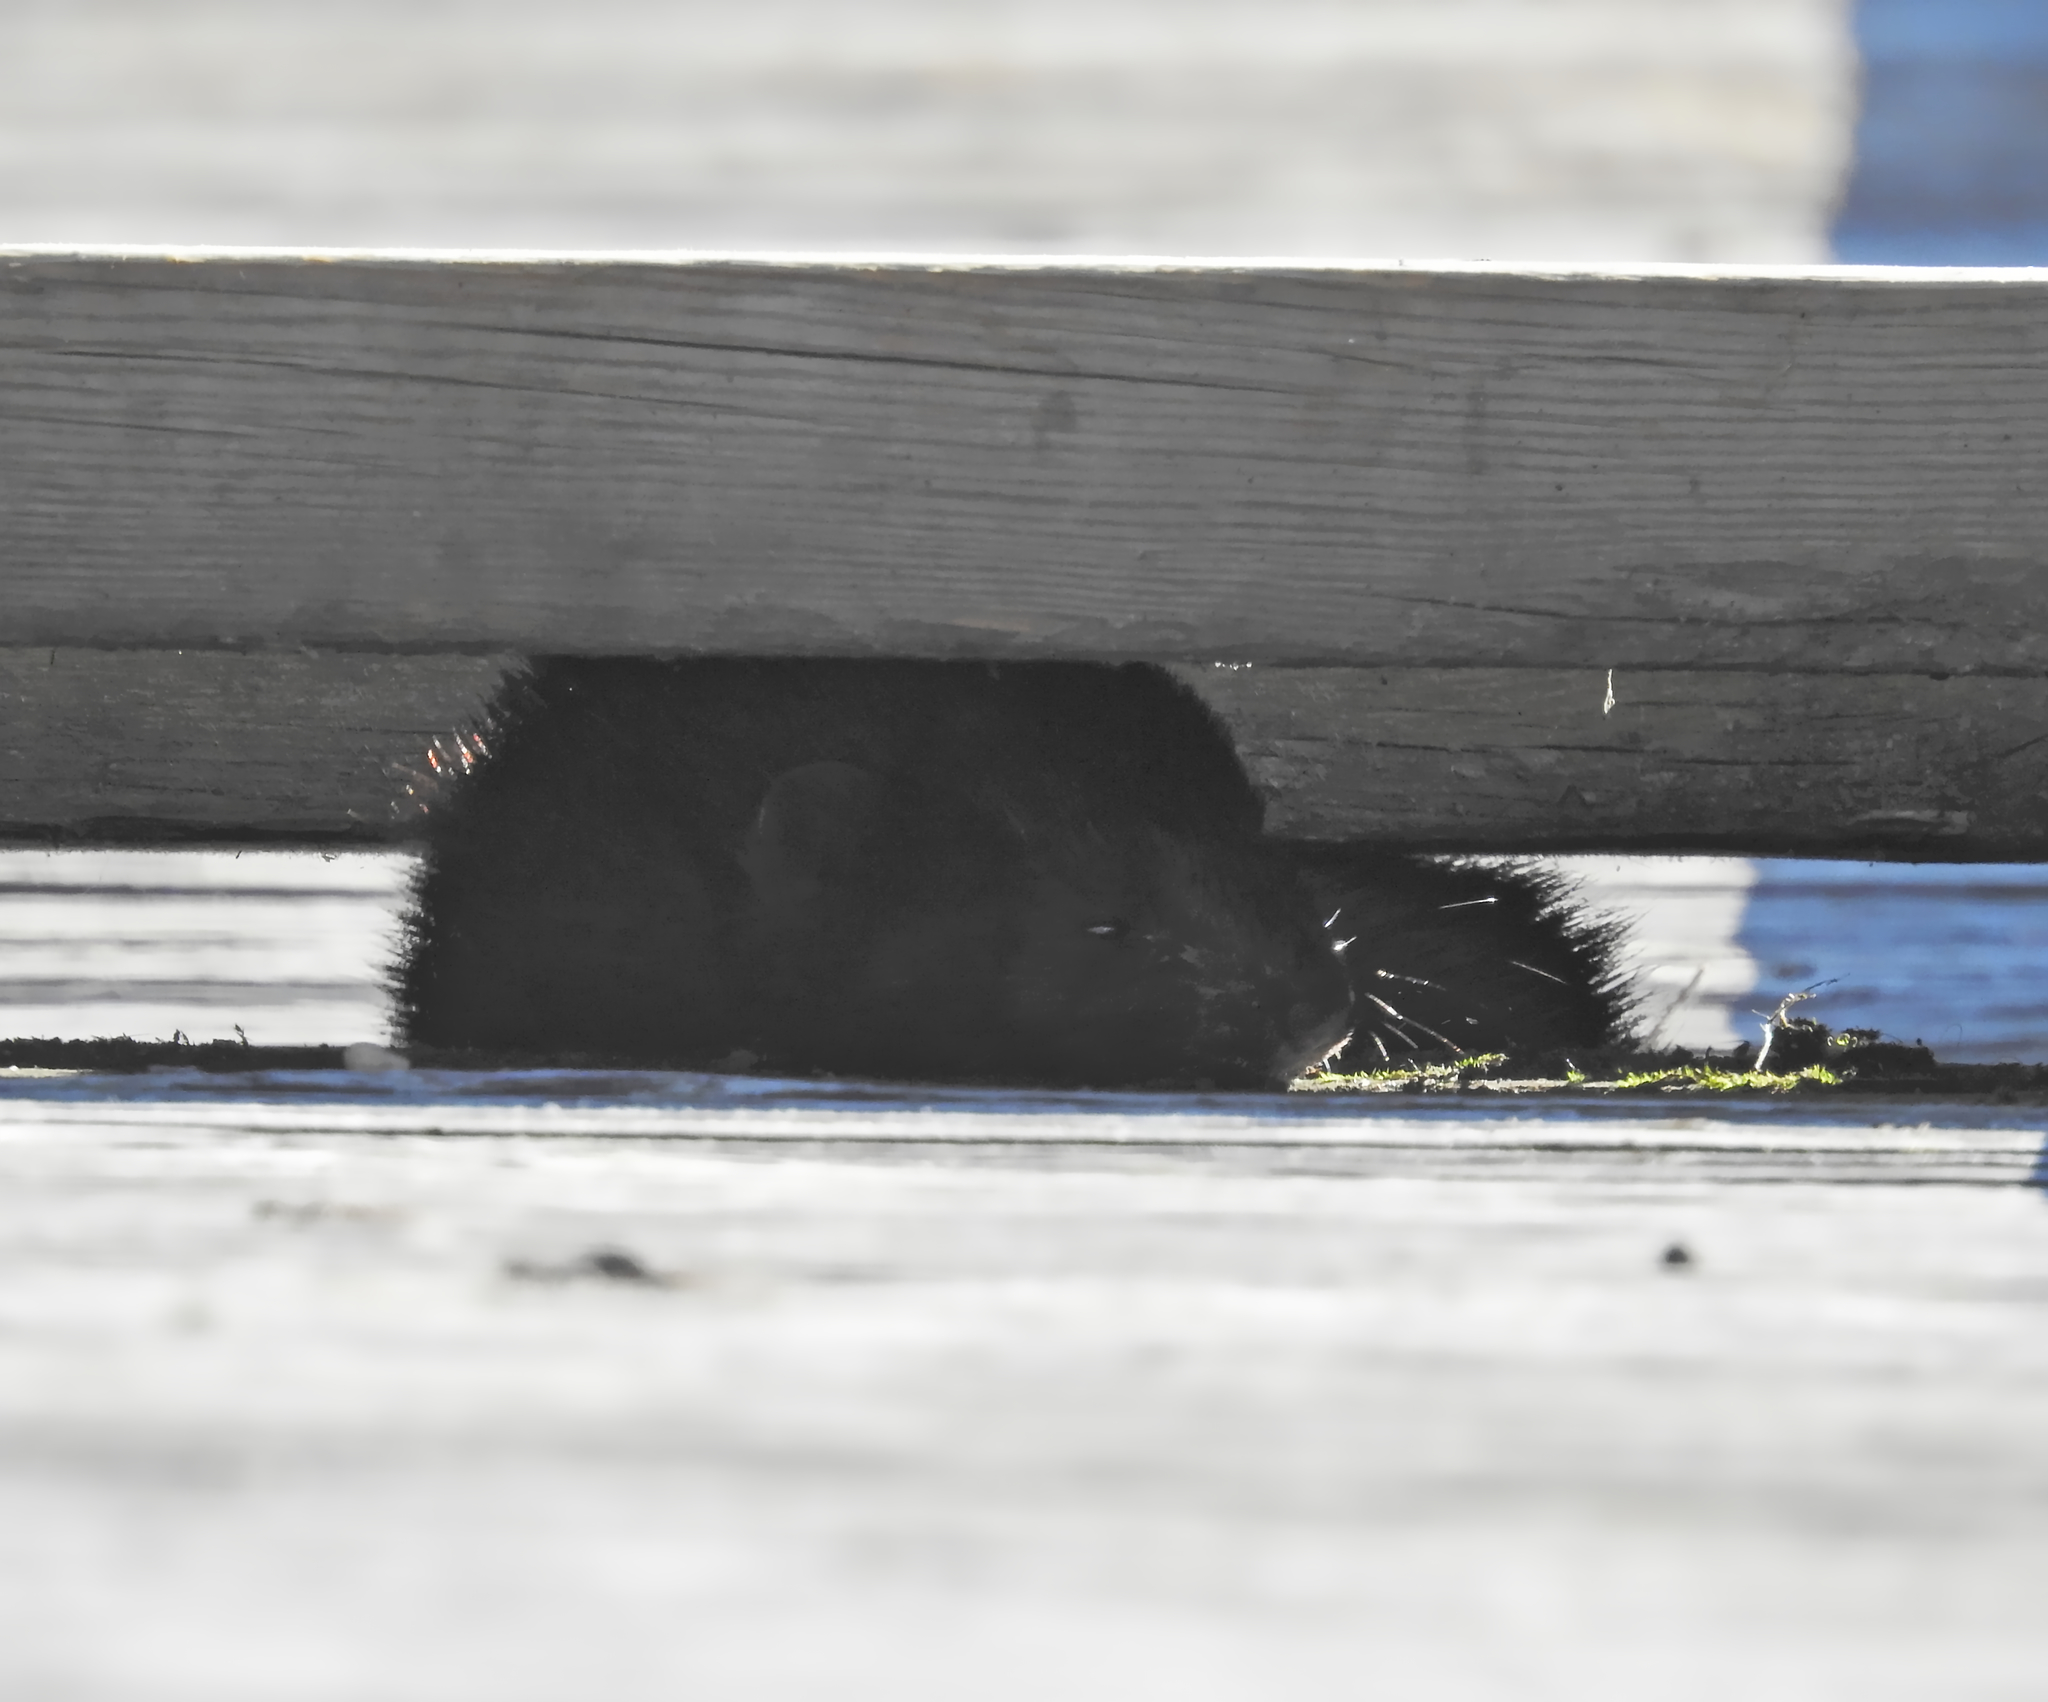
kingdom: Animalia
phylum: Chordata
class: Mammalia
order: Carnivora
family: Mustelidae
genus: Mustela
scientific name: Mustela
